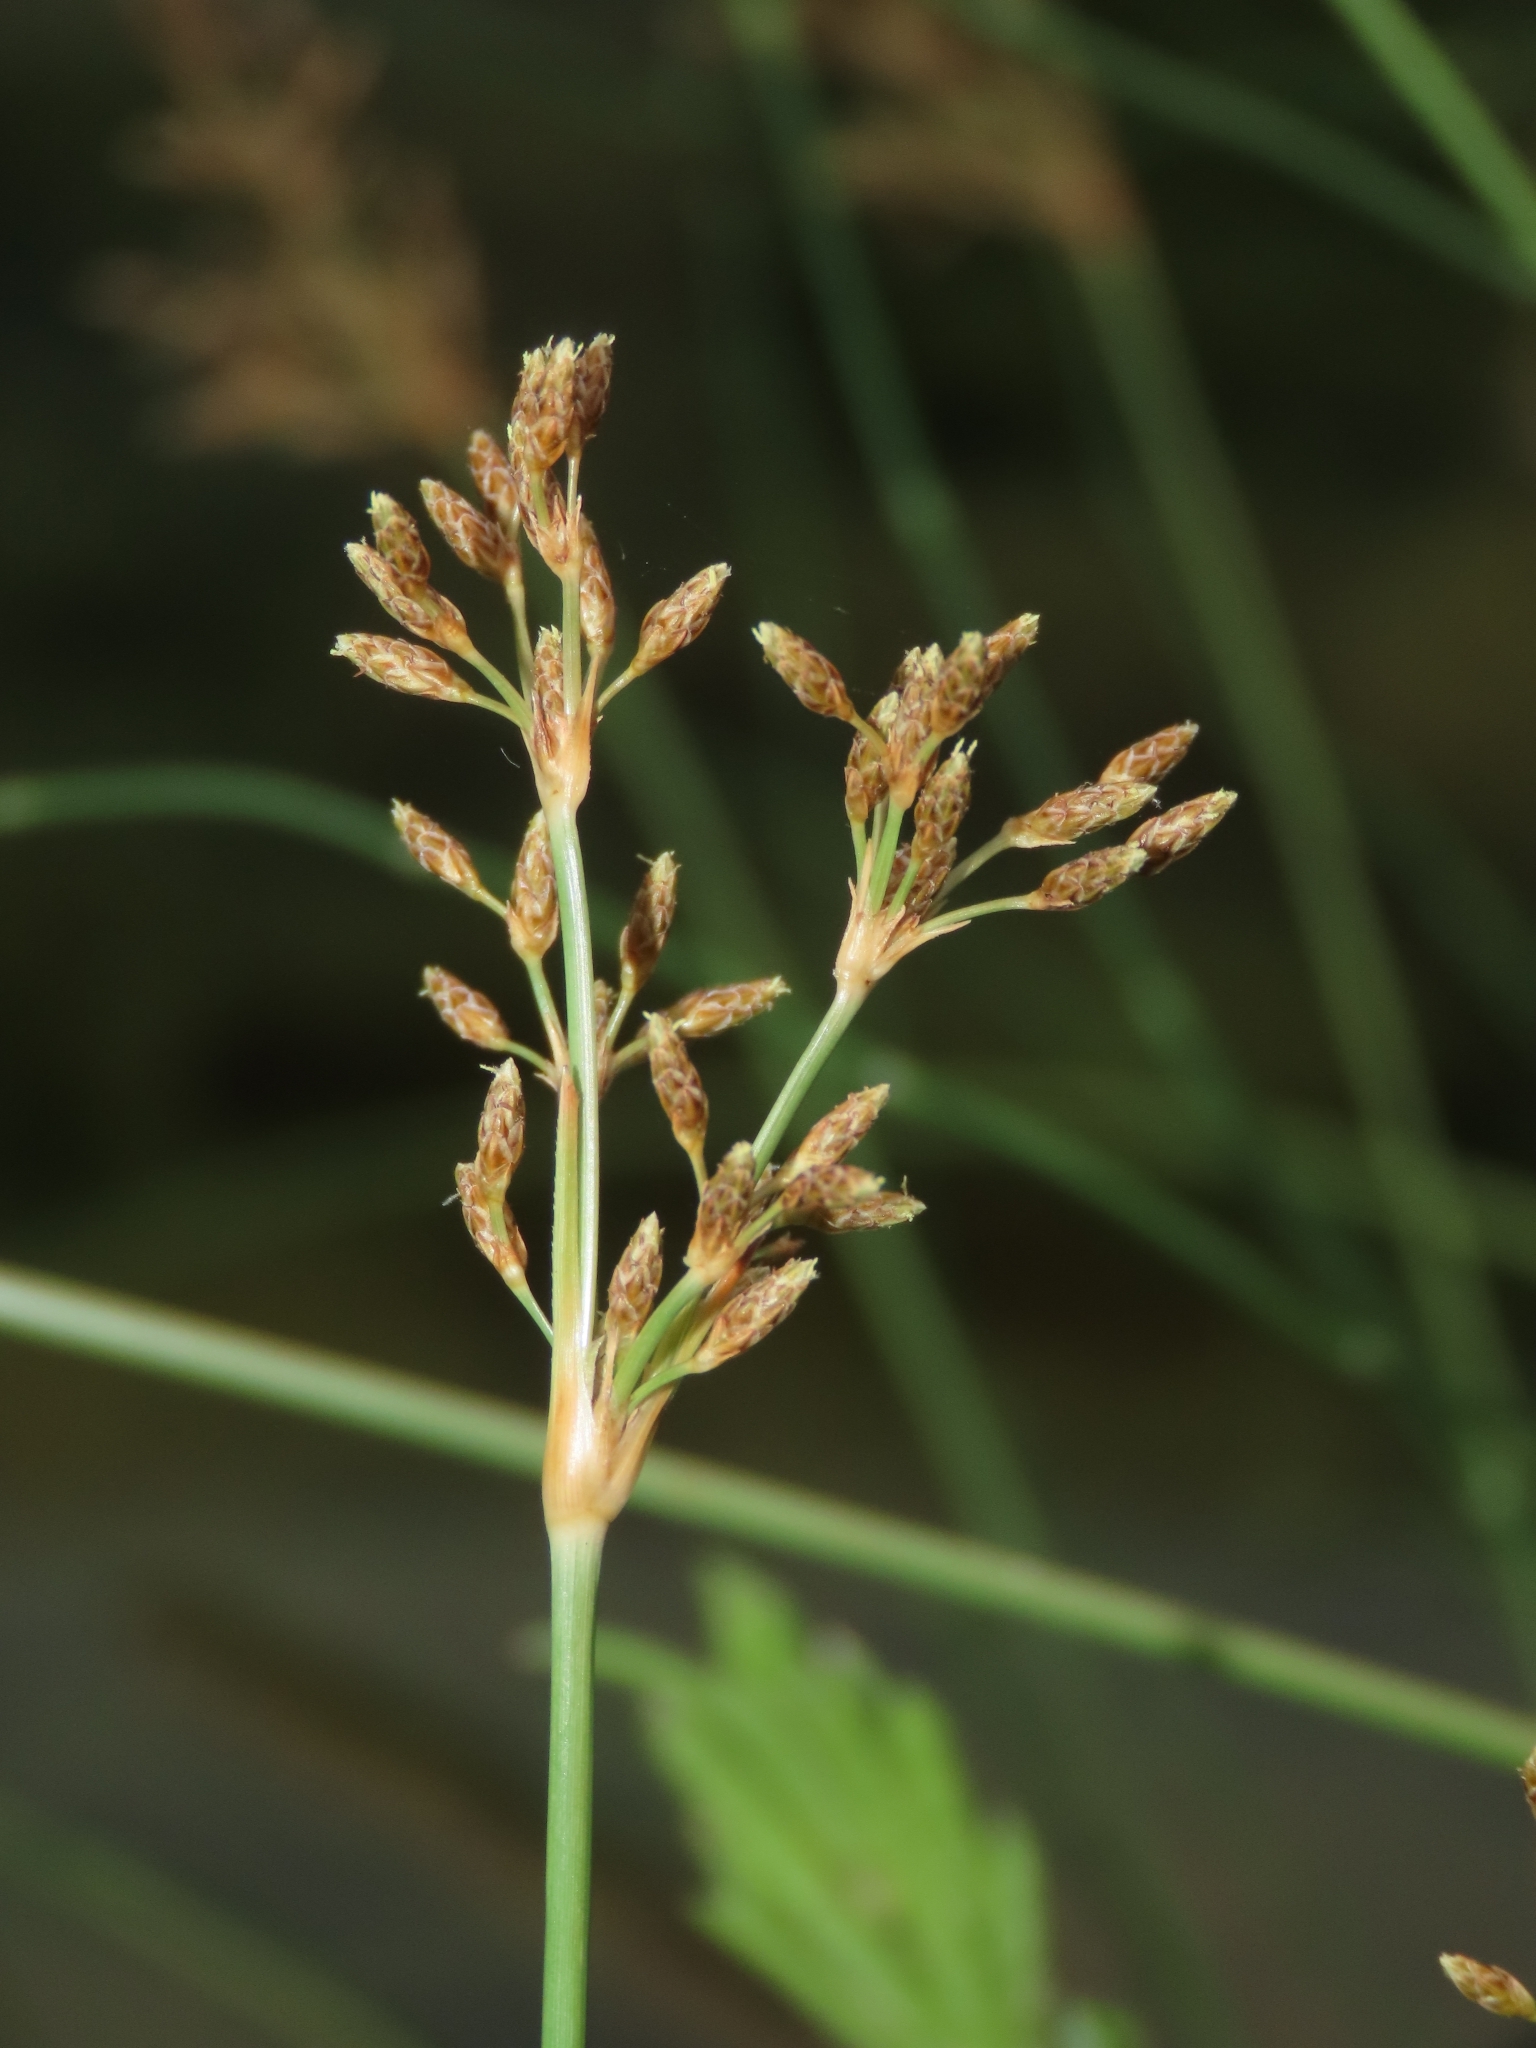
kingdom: Plantae
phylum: Tracheophyta
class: Liliopsida
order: Poales
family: Cyperaceae
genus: Fimbristylis
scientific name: Fimbristylis cymosa
